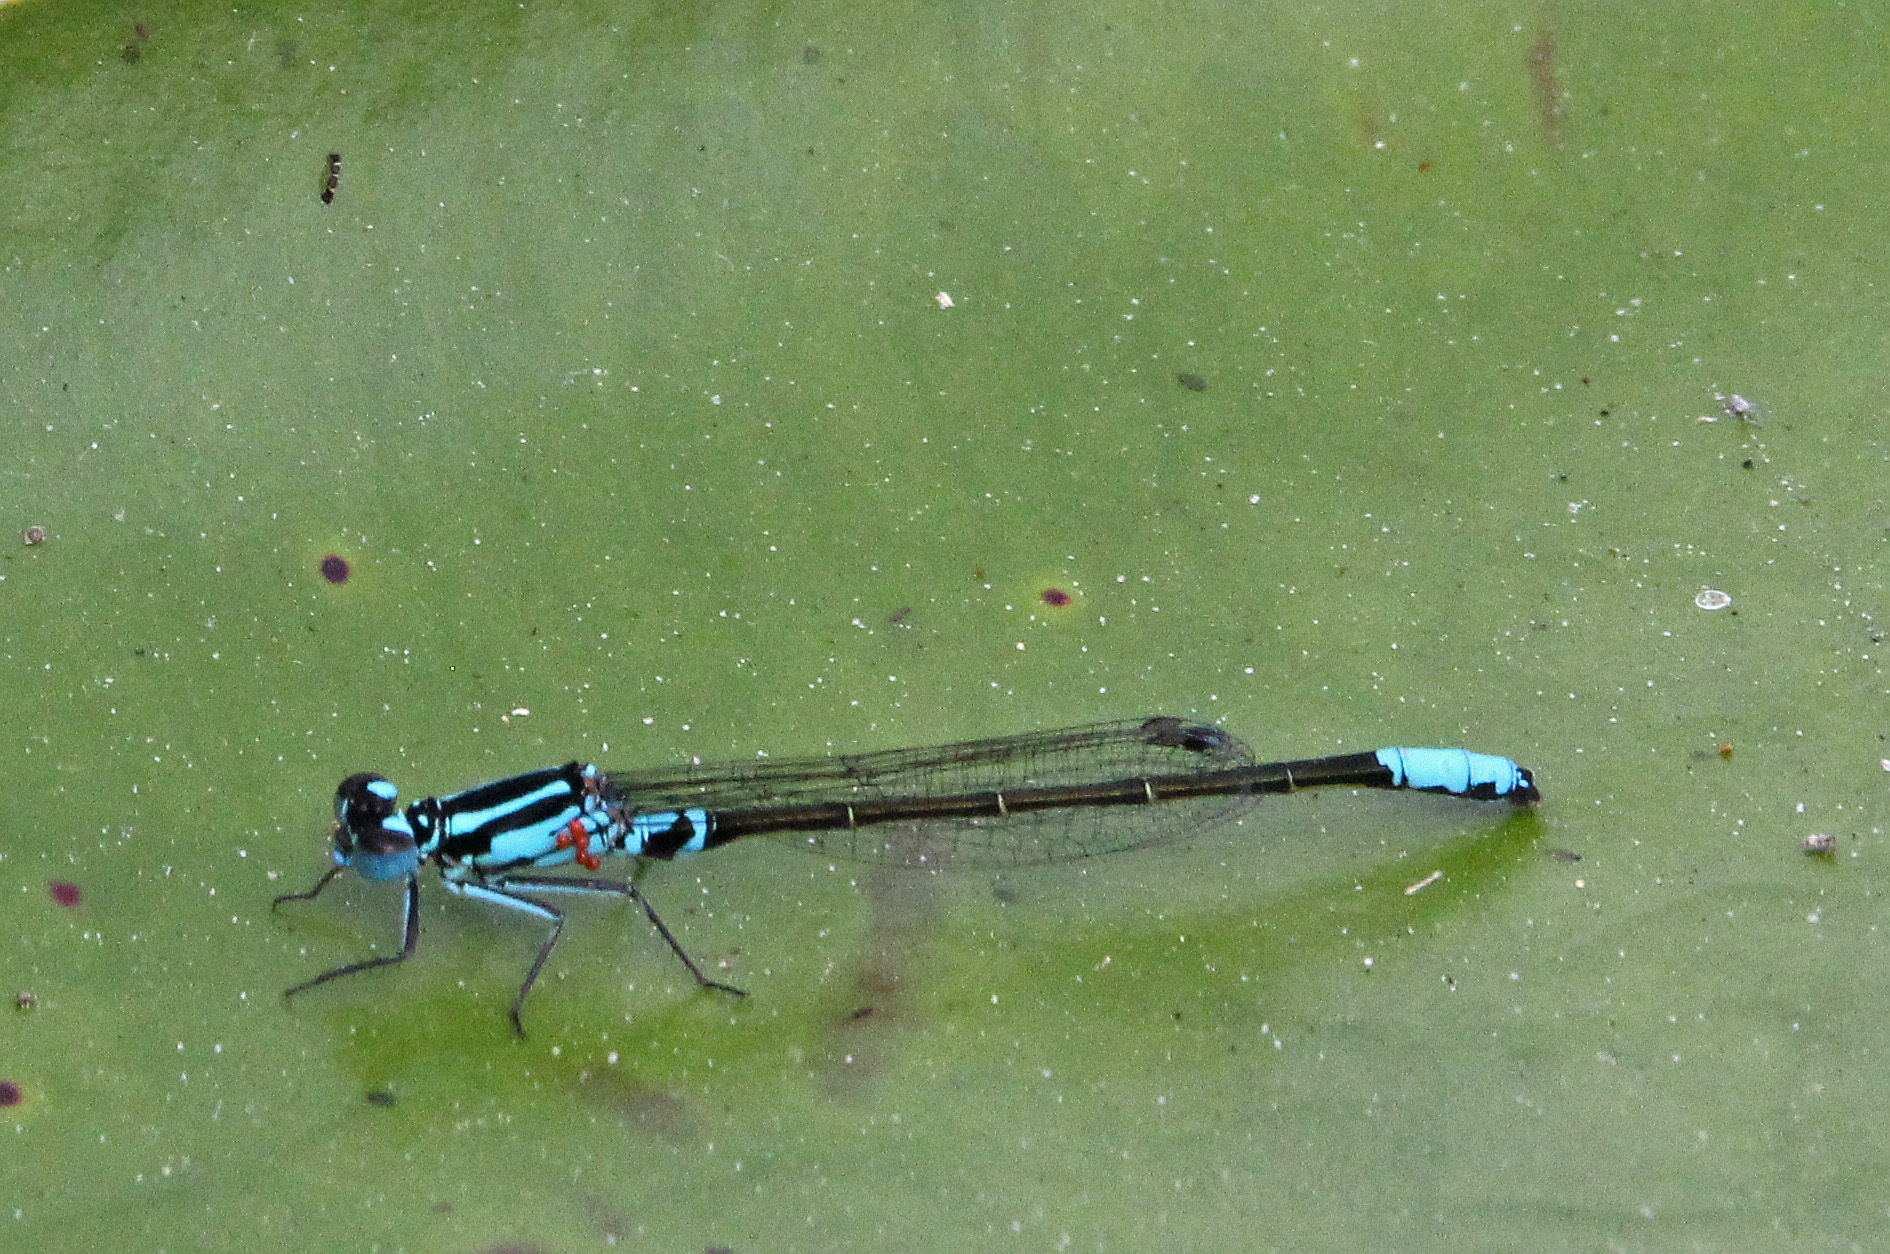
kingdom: Animalia
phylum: Arthropoda
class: Insecta
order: Odonata
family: Coenagrionidae
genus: Ischnura
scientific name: Ischnura kellicotti
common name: Lilypad forktail
